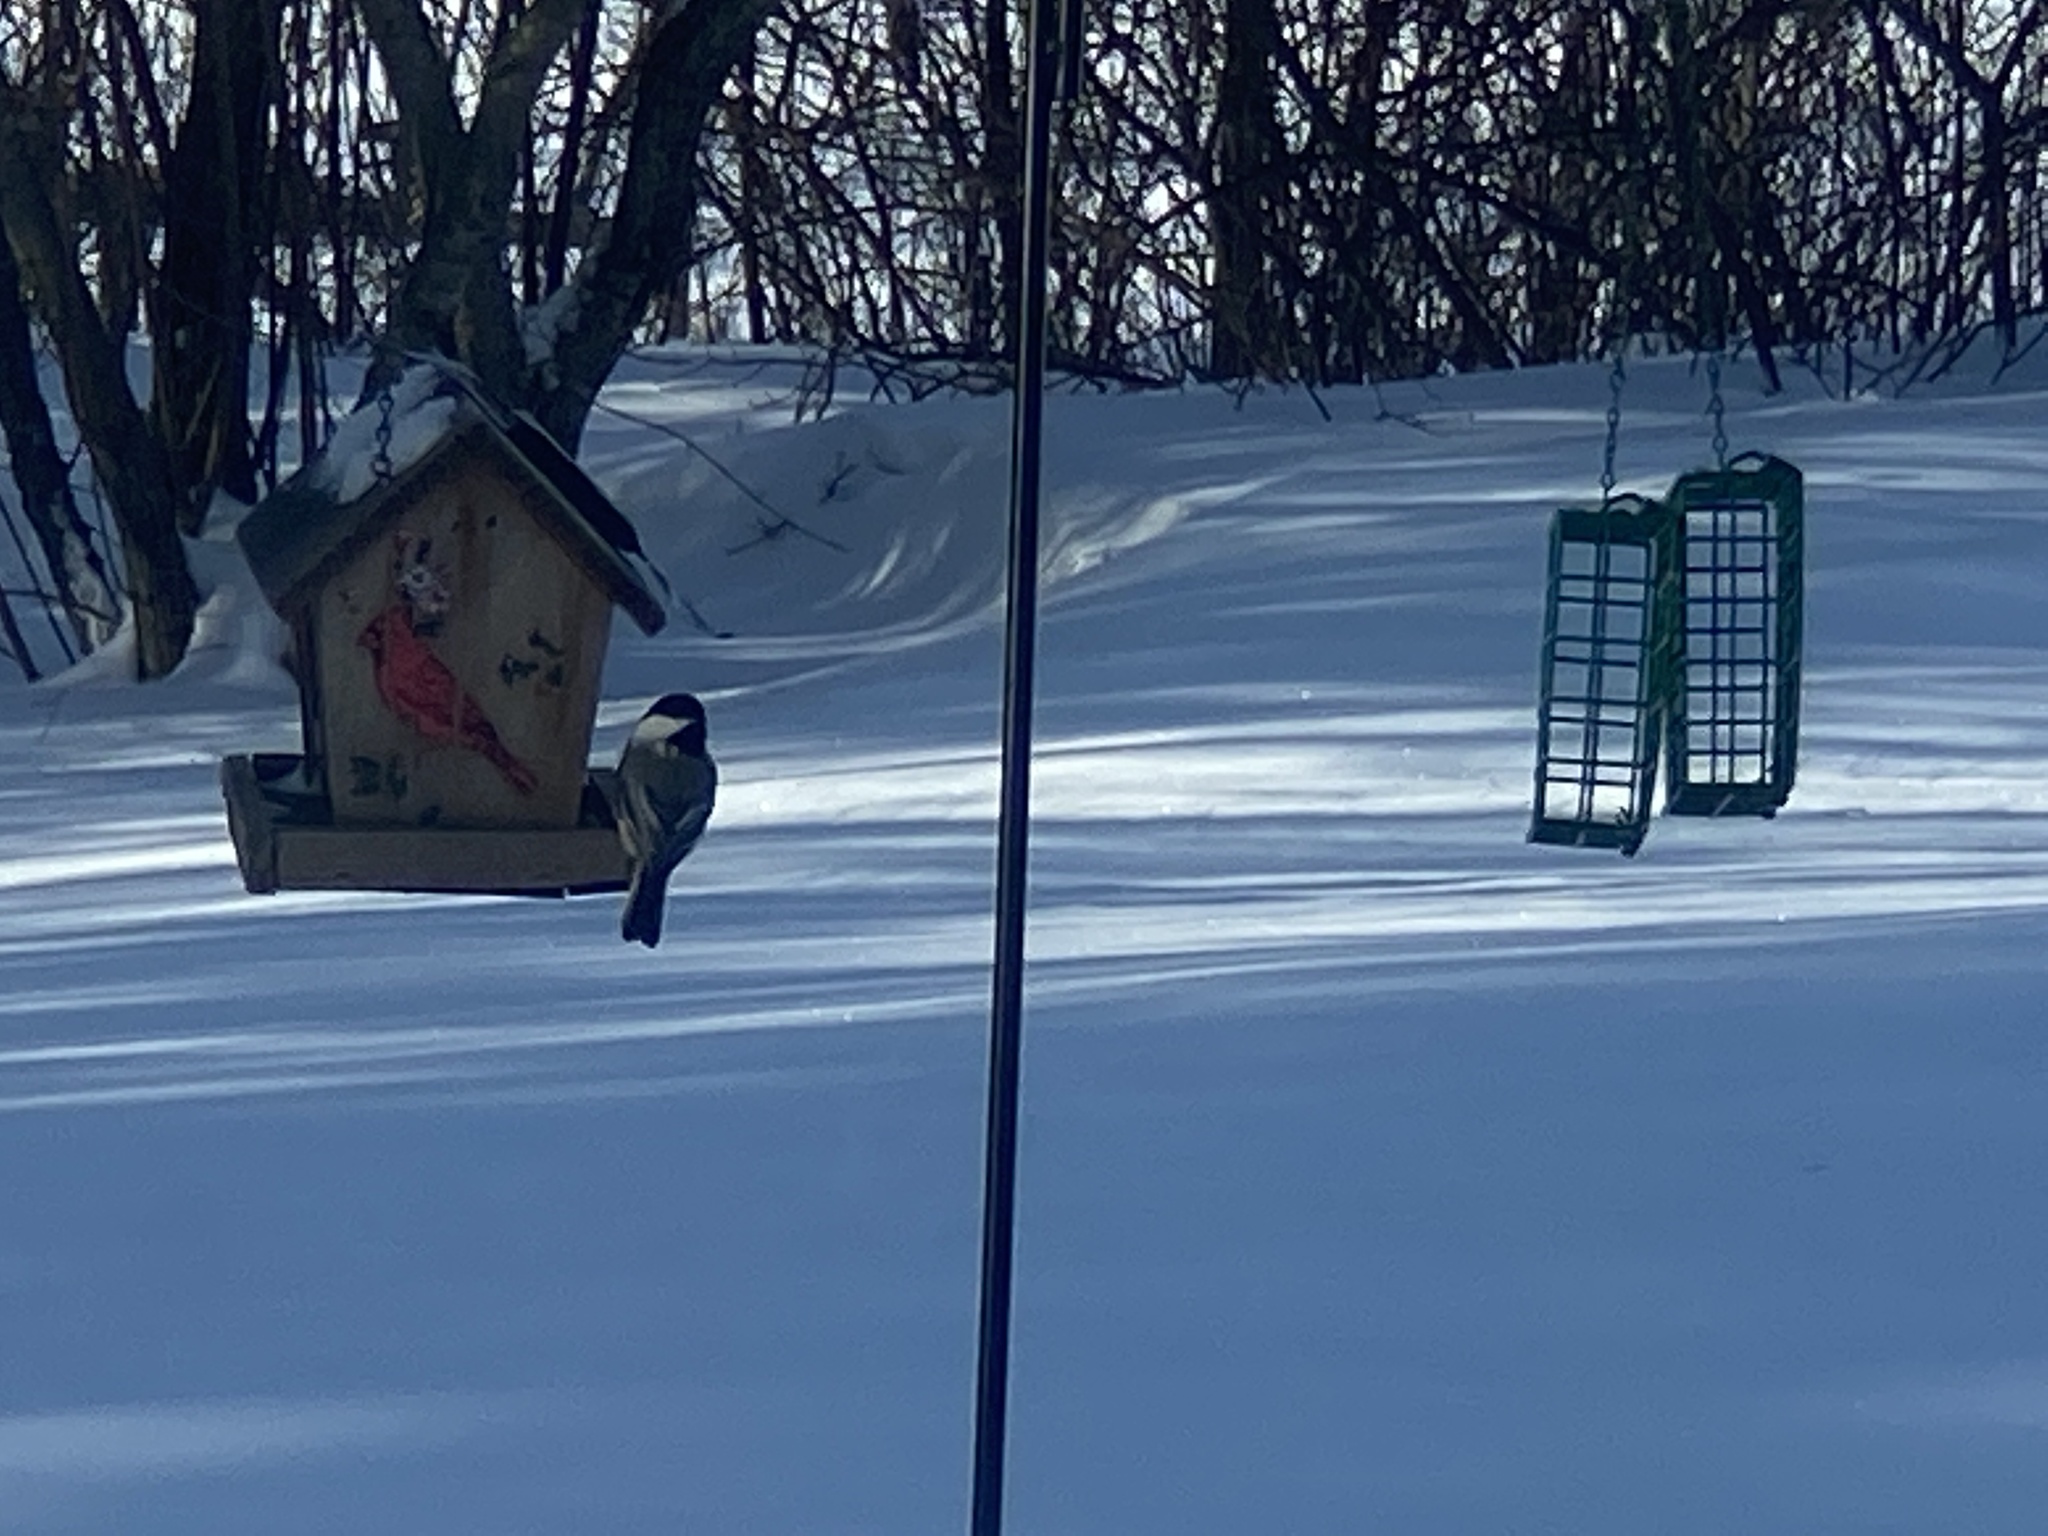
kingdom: Animalia
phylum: Chordata
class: Aves
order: Passeriformes
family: Paridae
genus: Poecile
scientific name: Poecile atricapillus
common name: Black-capped chickadee
